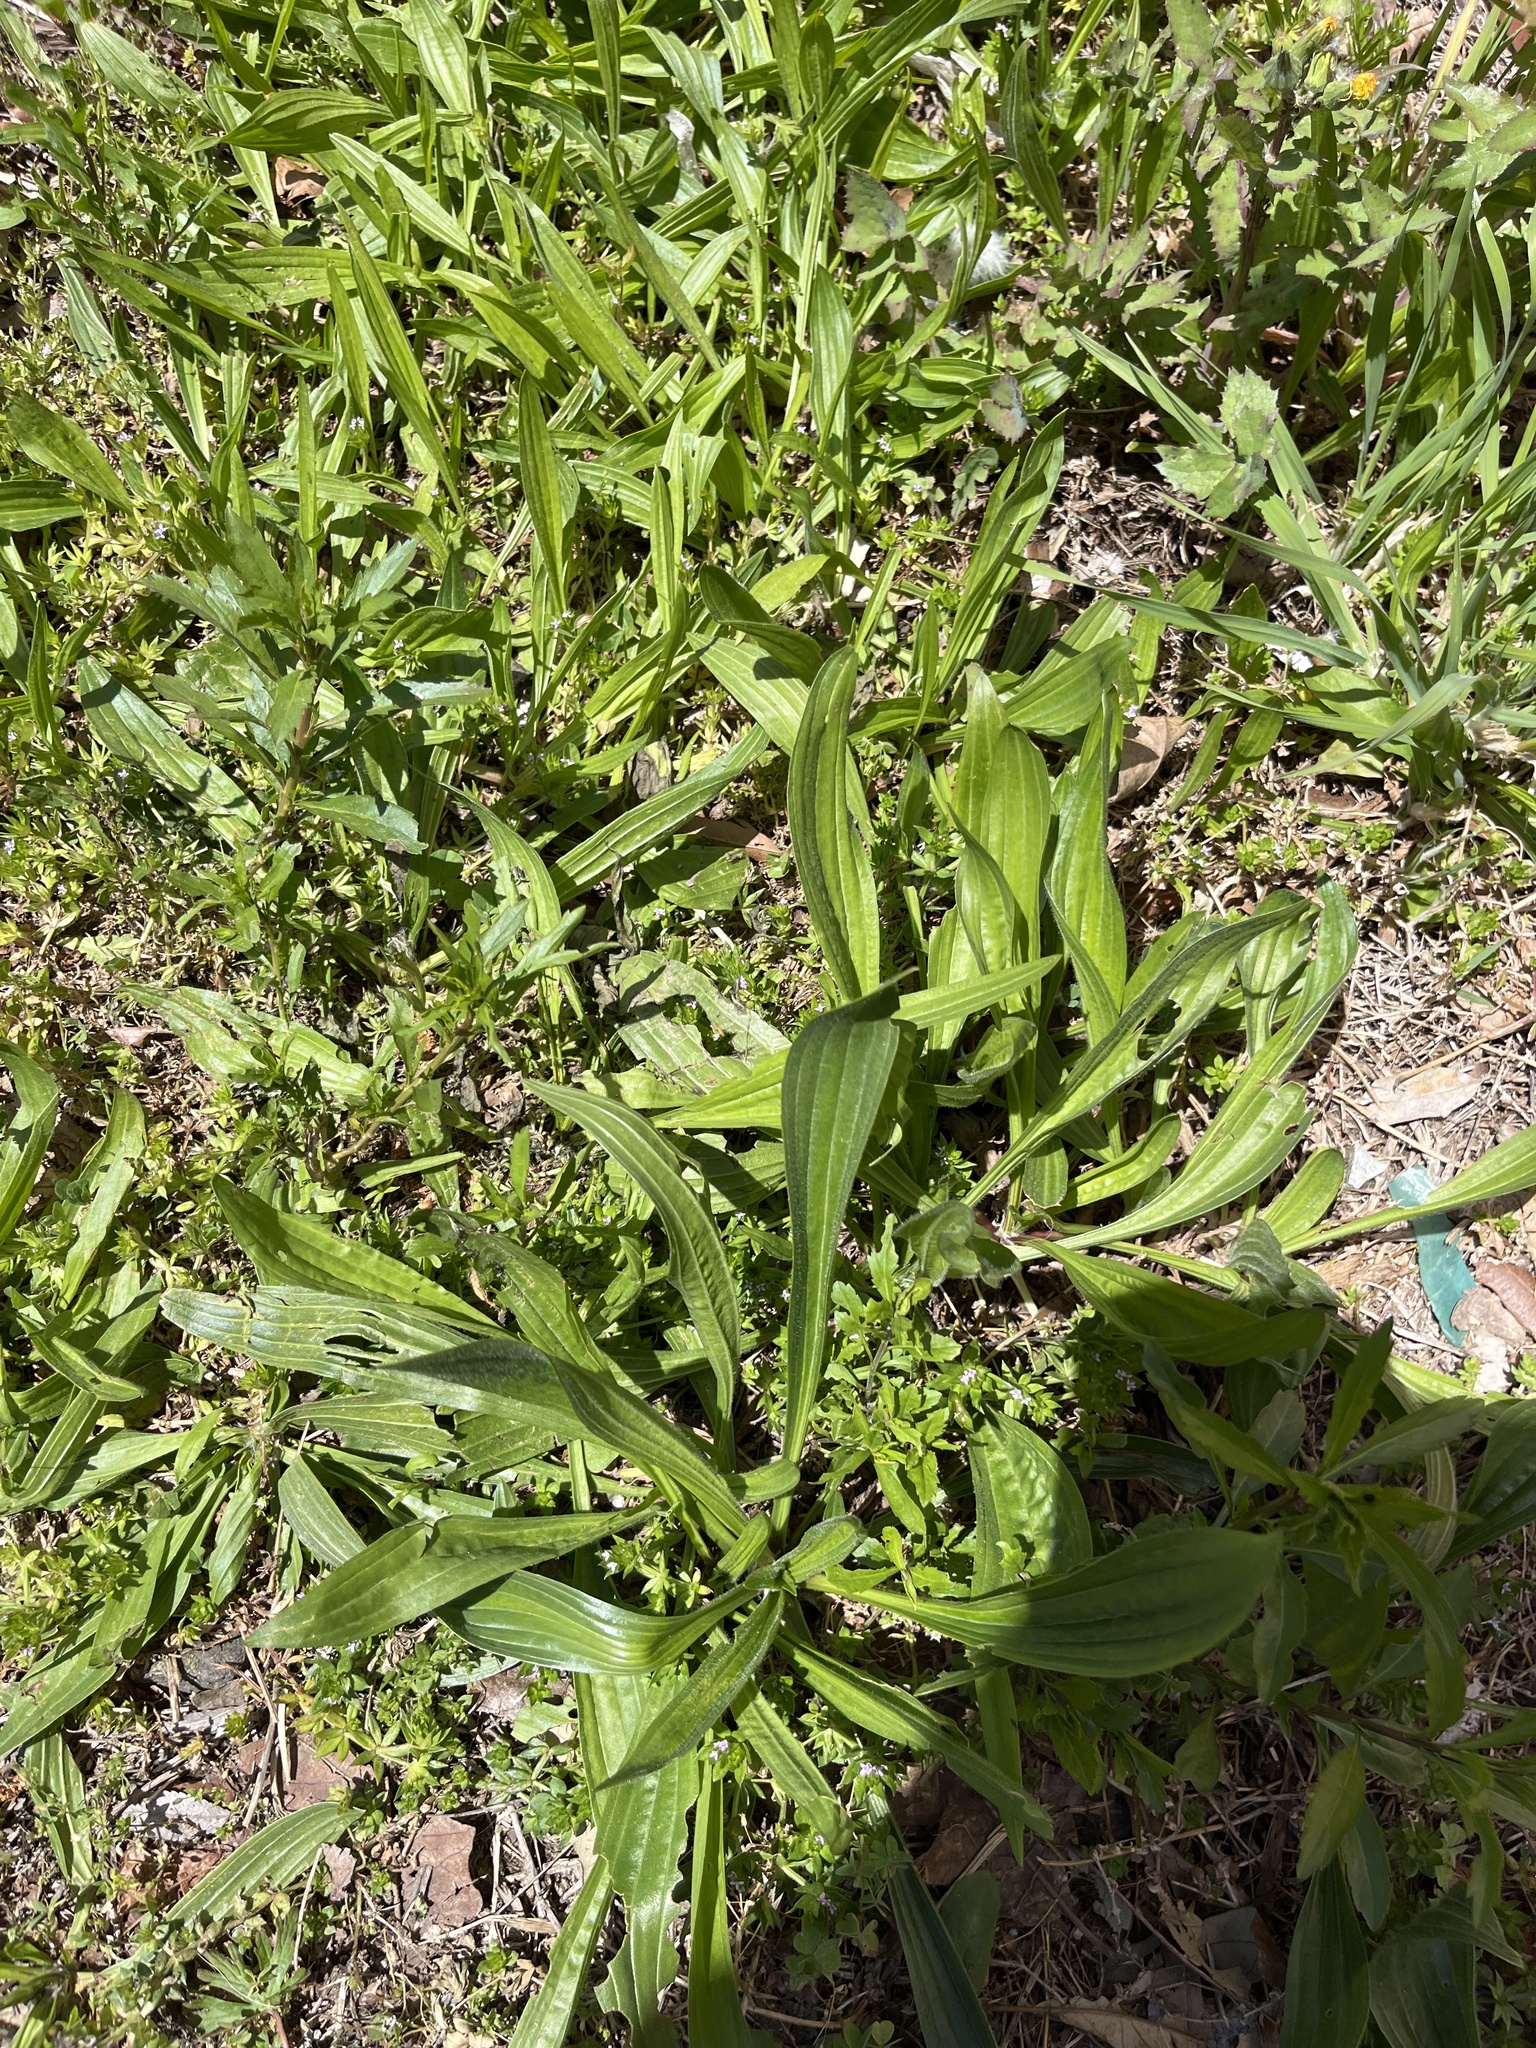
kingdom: Plantae
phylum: Tracheophyta
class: Magnoliopsida
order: Lamiales
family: Plantaginaceae
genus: Plantago
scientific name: Plantago lanceolata
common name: Ribwort plantain
